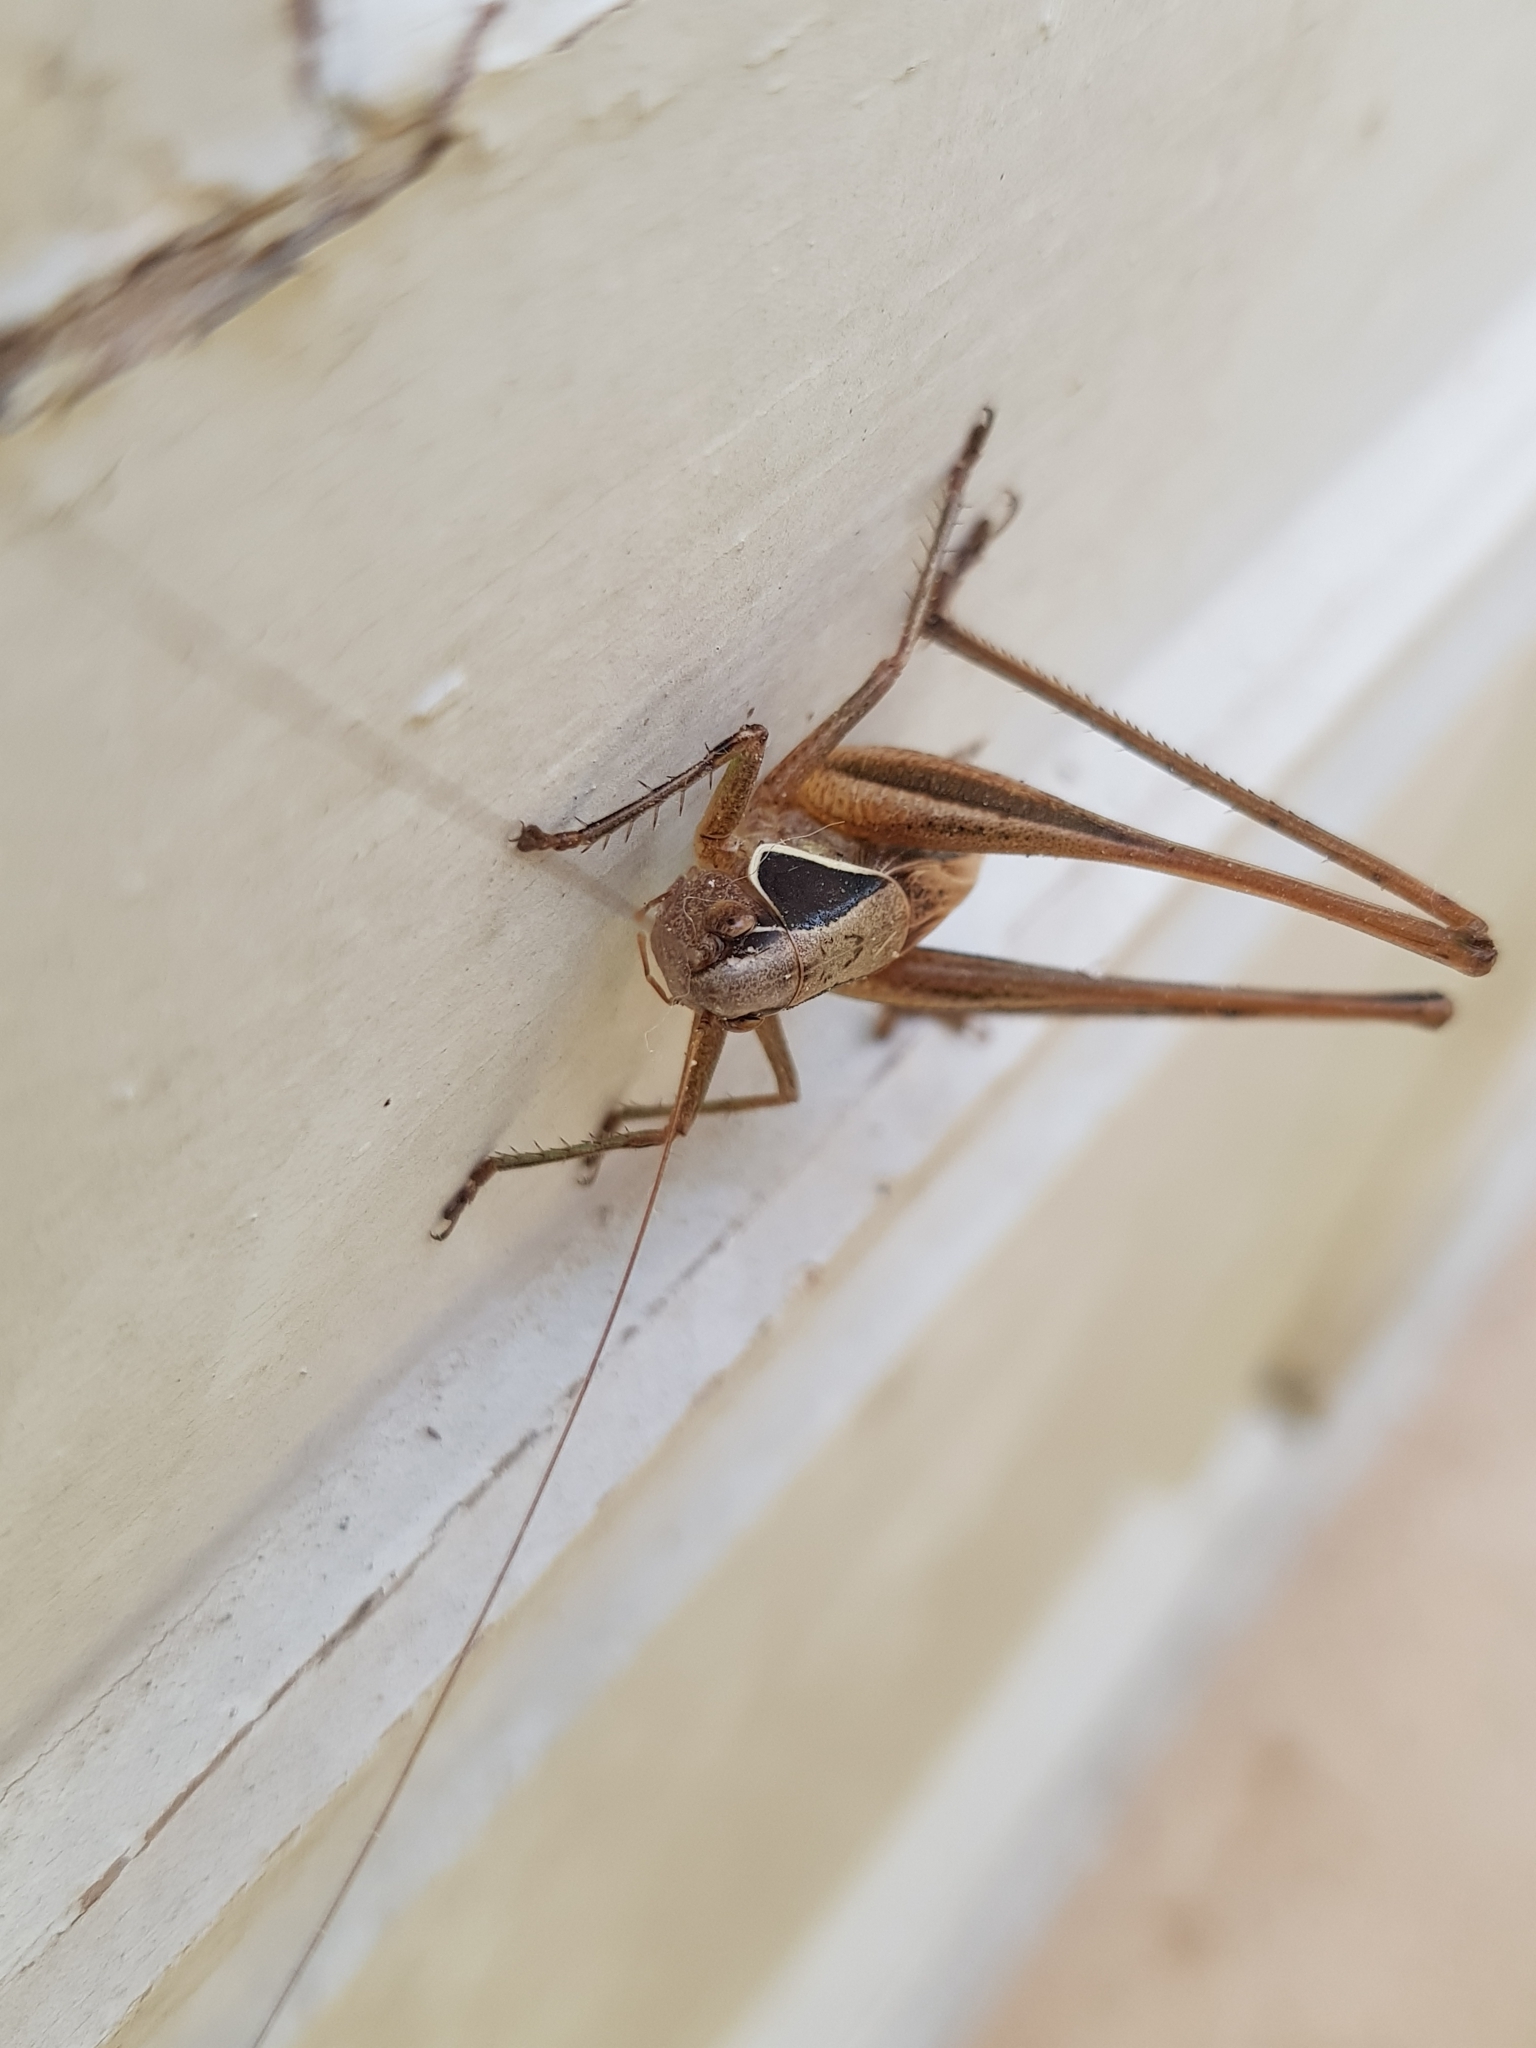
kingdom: Animalia
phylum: Arthropoda
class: Insecta
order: Orthoptera
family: Tettigoniidae
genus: Sepiana
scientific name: Sepiana sepium
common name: Sepia bush-cricket
